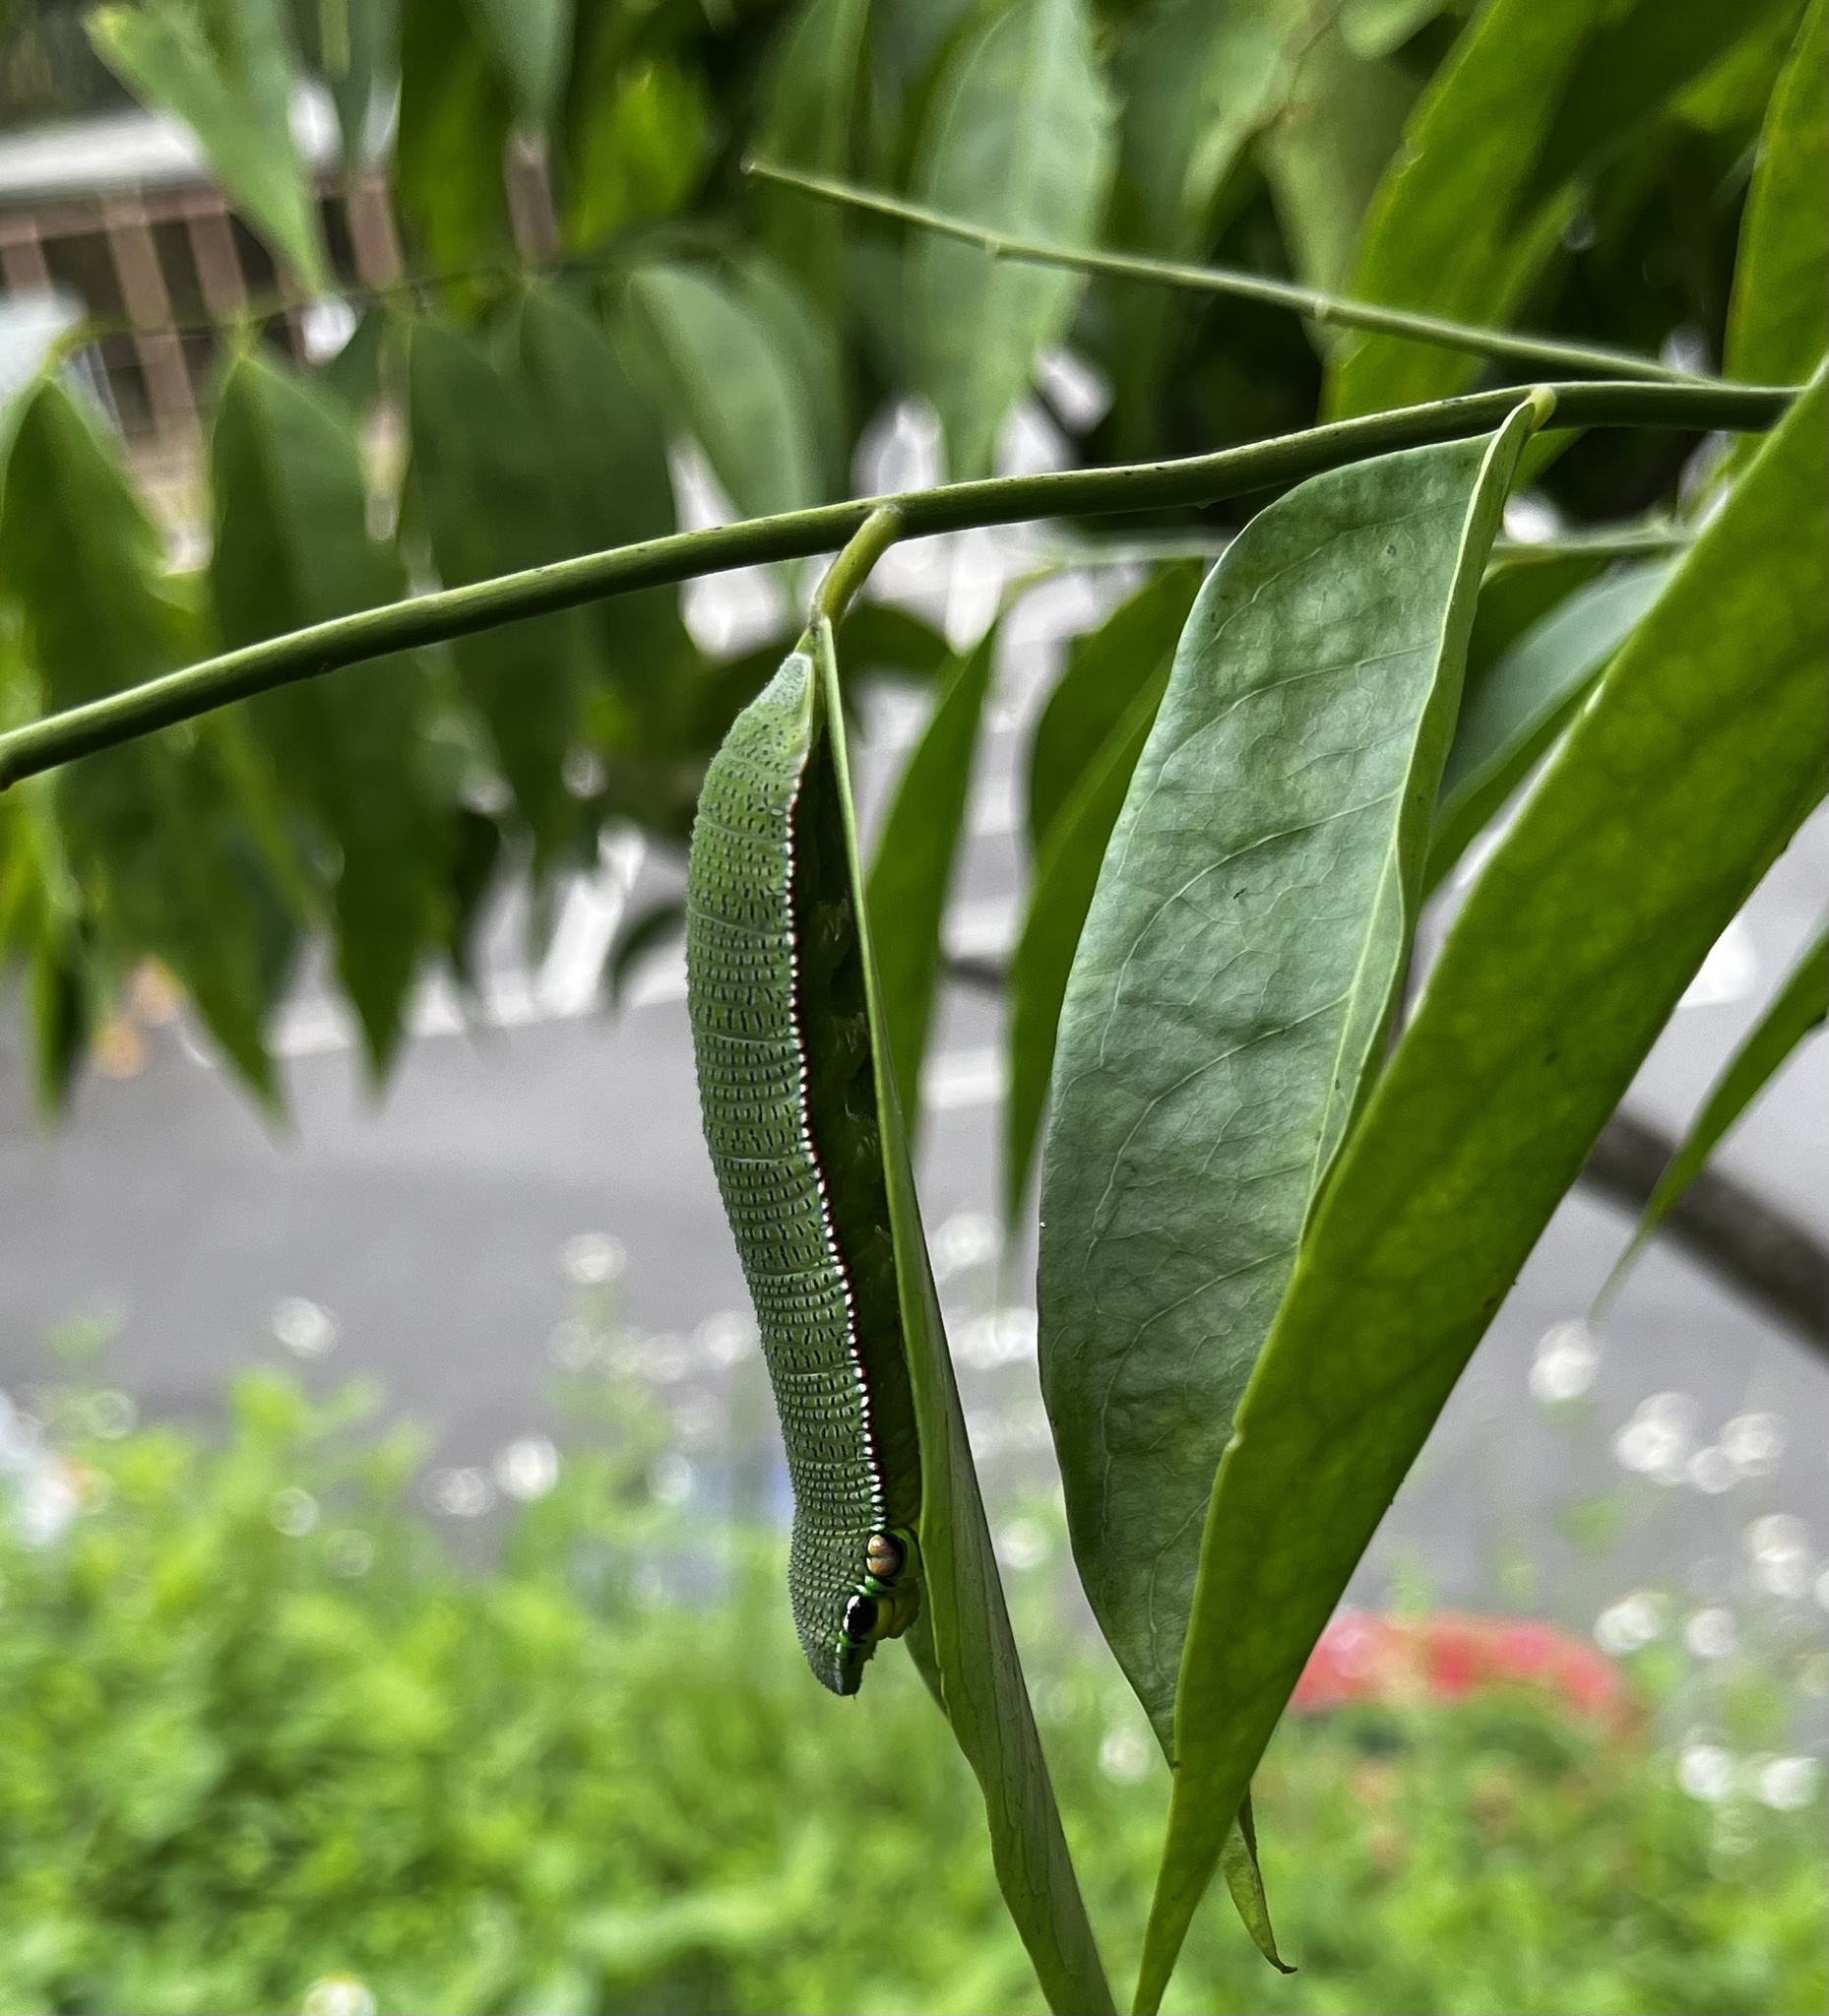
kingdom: Animalia
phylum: Arthropoda
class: Insecta
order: Lepidoptera
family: Pieridae
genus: Hebomoia
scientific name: Hebomoia glaucippe
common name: Great orange tip
